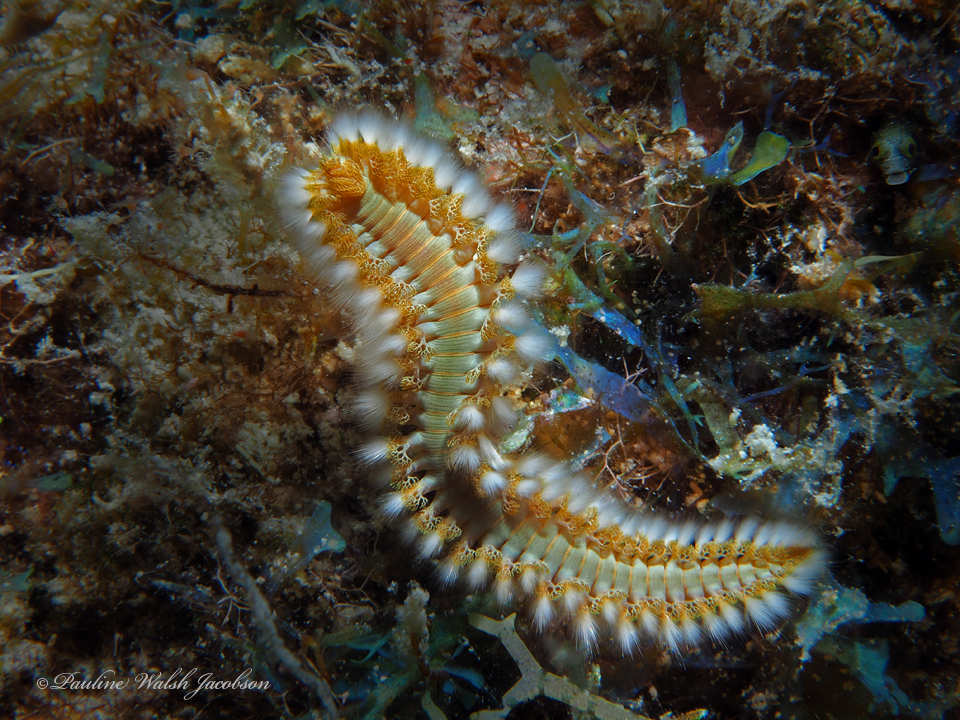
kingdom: Animalia
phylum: Annelida
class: Polychaeta
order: Amphinomida
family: Amphinomidae
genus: Hermodice
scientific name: Hermodice carunculata
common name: Bearded fireworm
